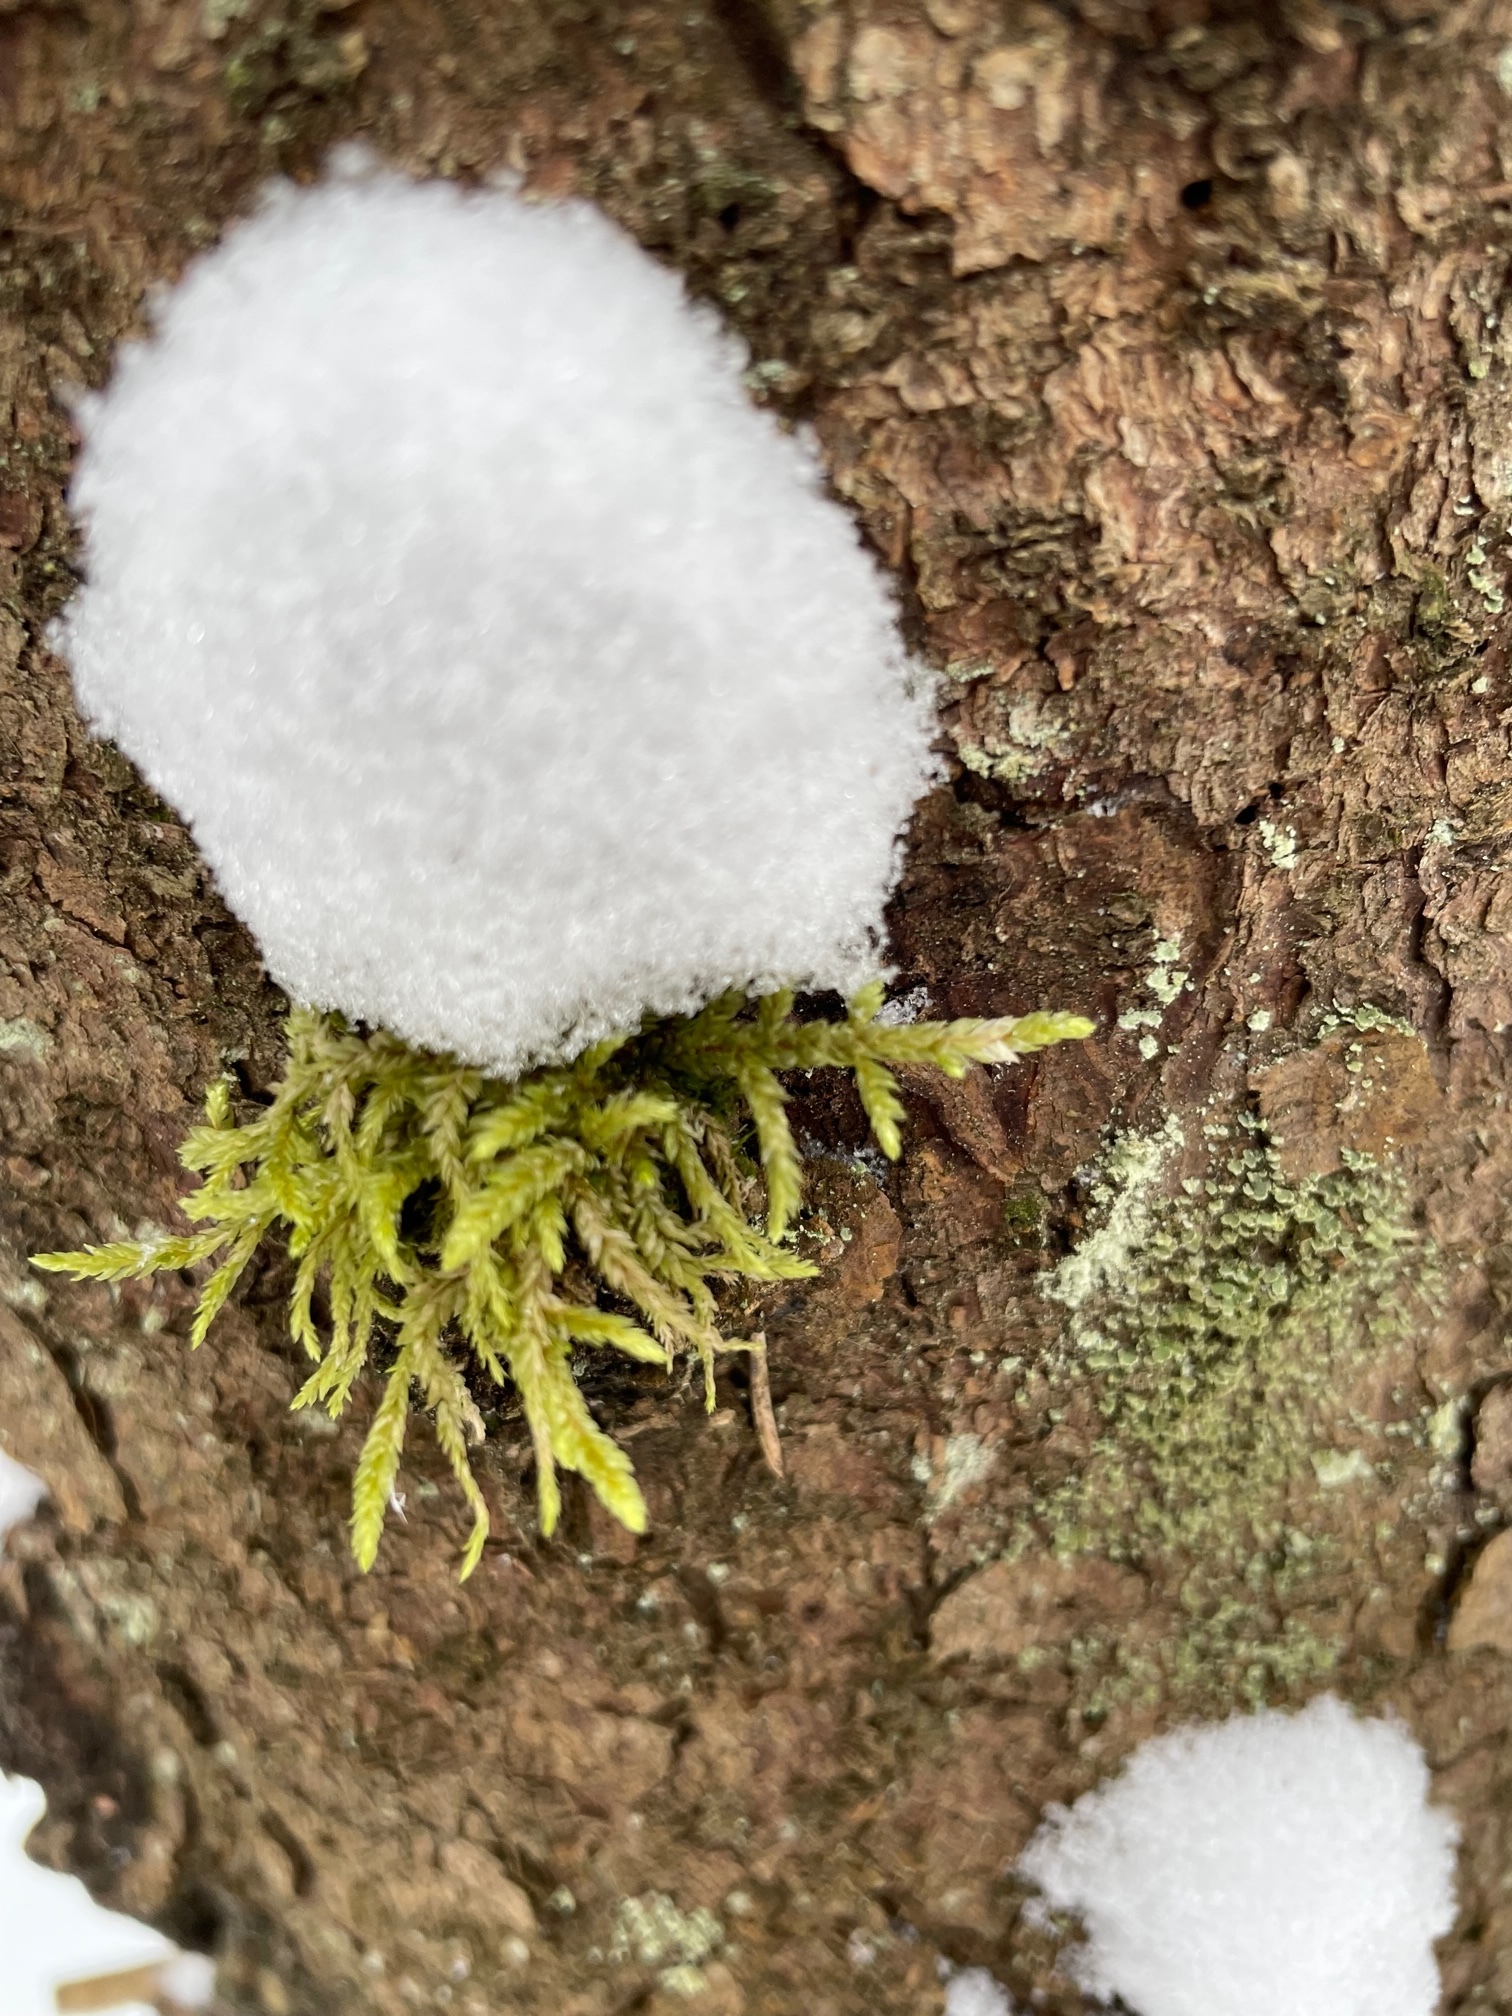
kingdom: Plantae
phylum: Bryophyta
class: Bryopsida
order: Hypnales
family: Hylocomiaceae
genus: Pleurozium
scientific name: Pleurozium schreberi
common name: Red-stemmed feather moss
